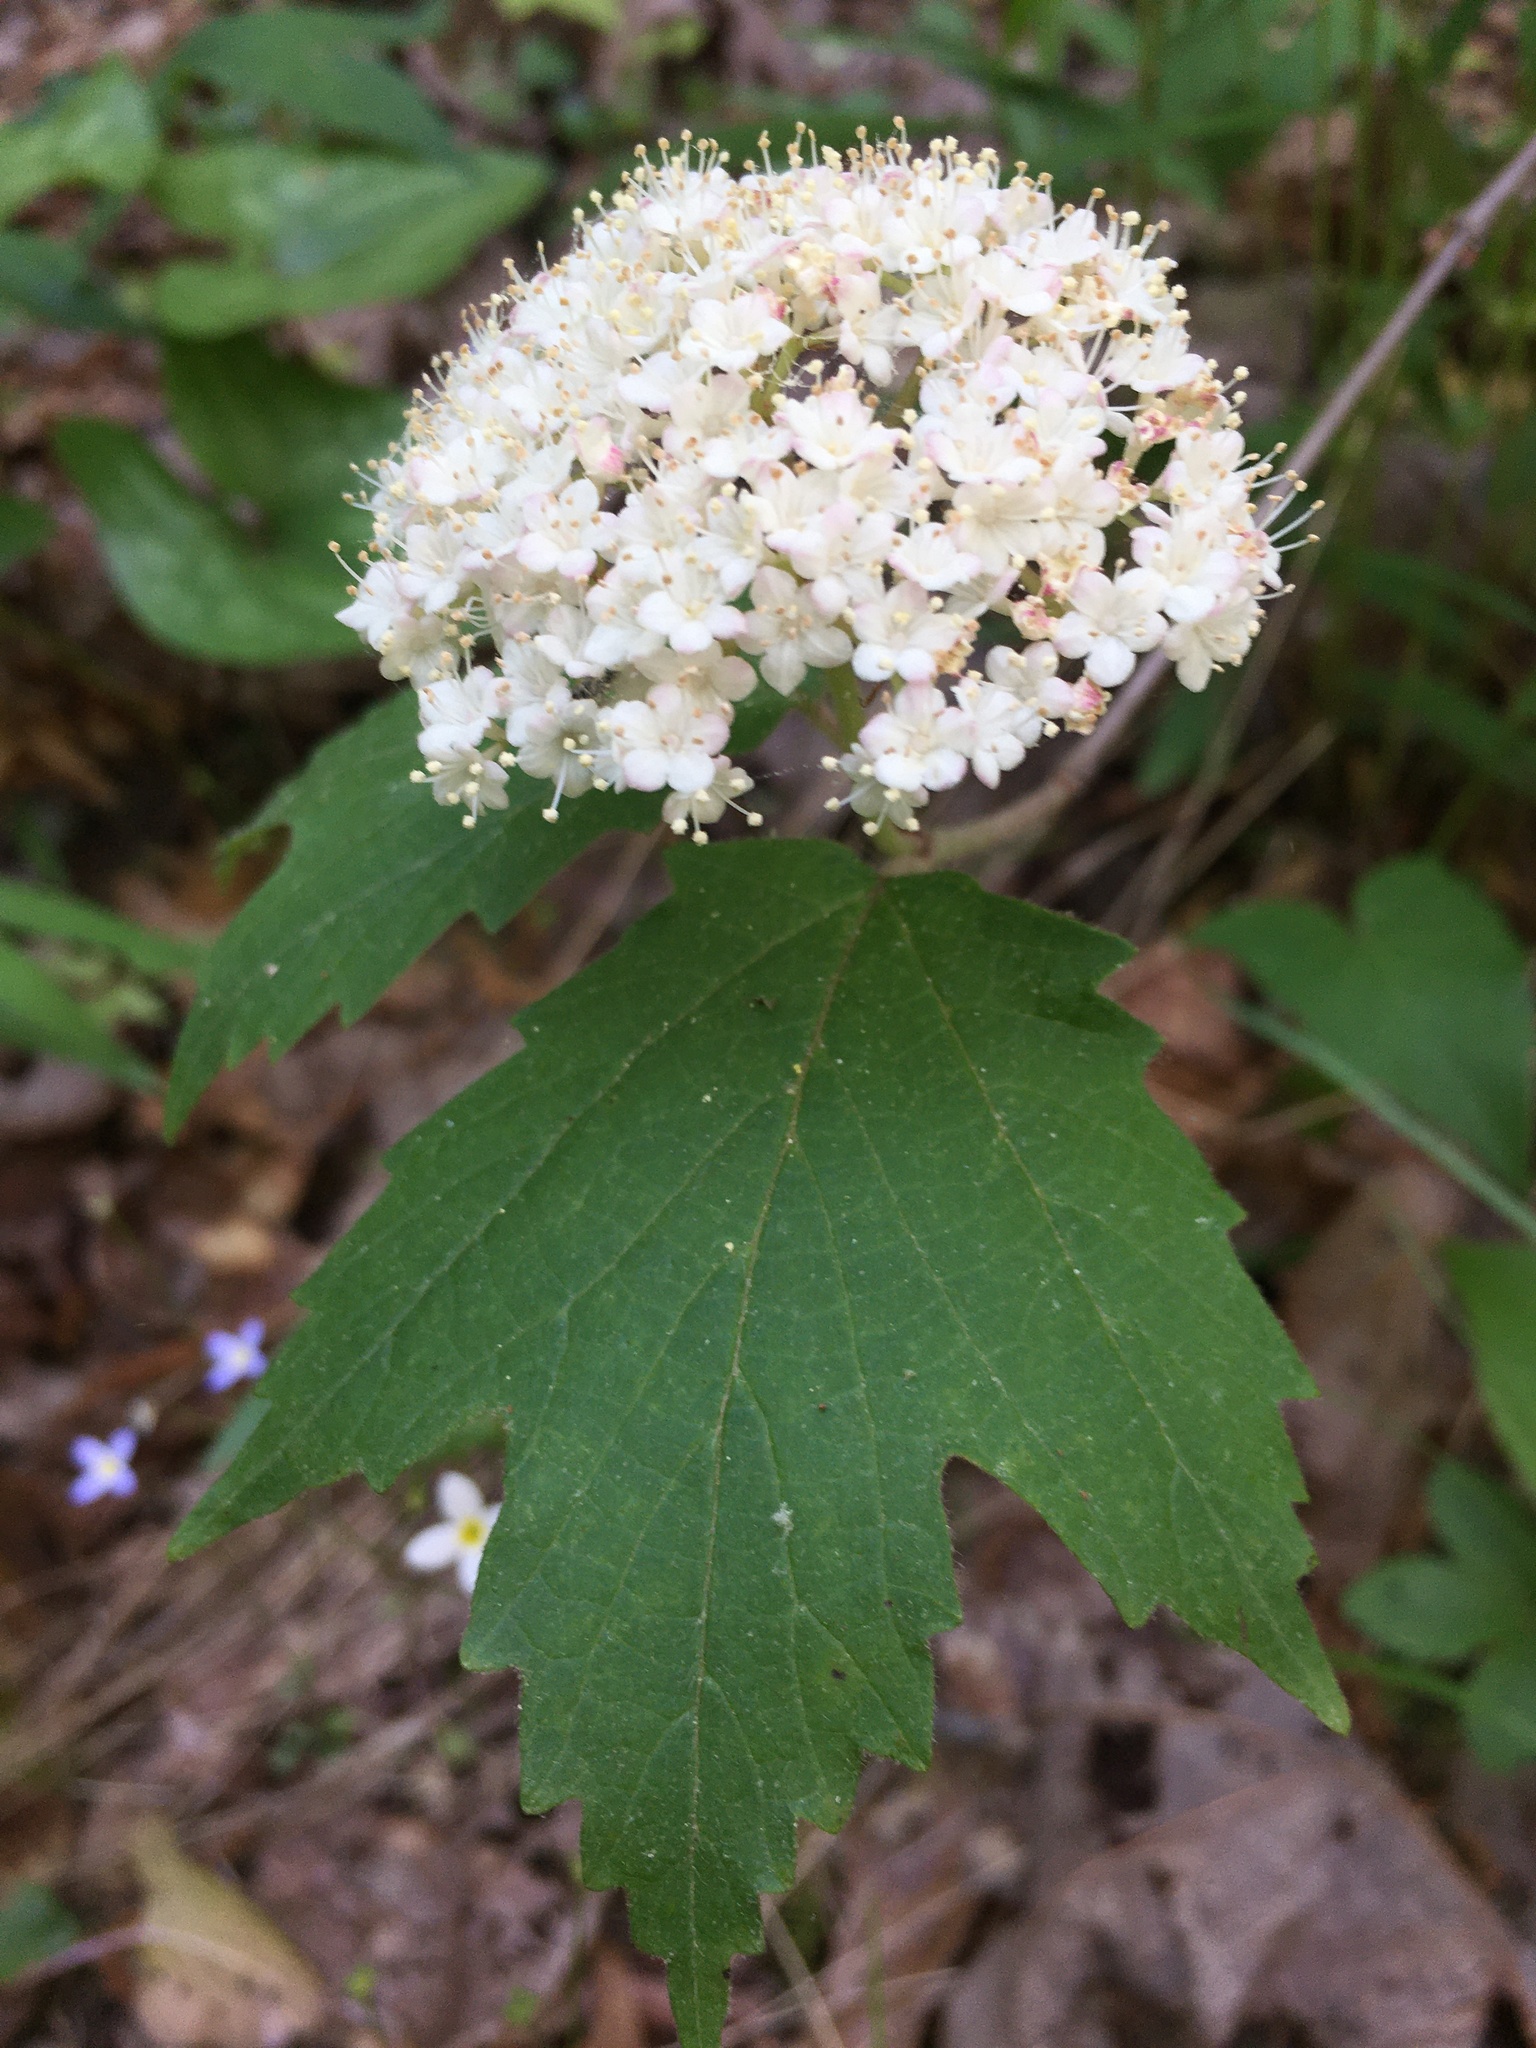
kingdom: Plantae
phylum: Tracheophyta
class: Magnoliopsida
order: Dipsacales
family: Viburnaceae
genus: Viburnum
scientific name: Viburnum acerifolium
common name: Dockmackie
